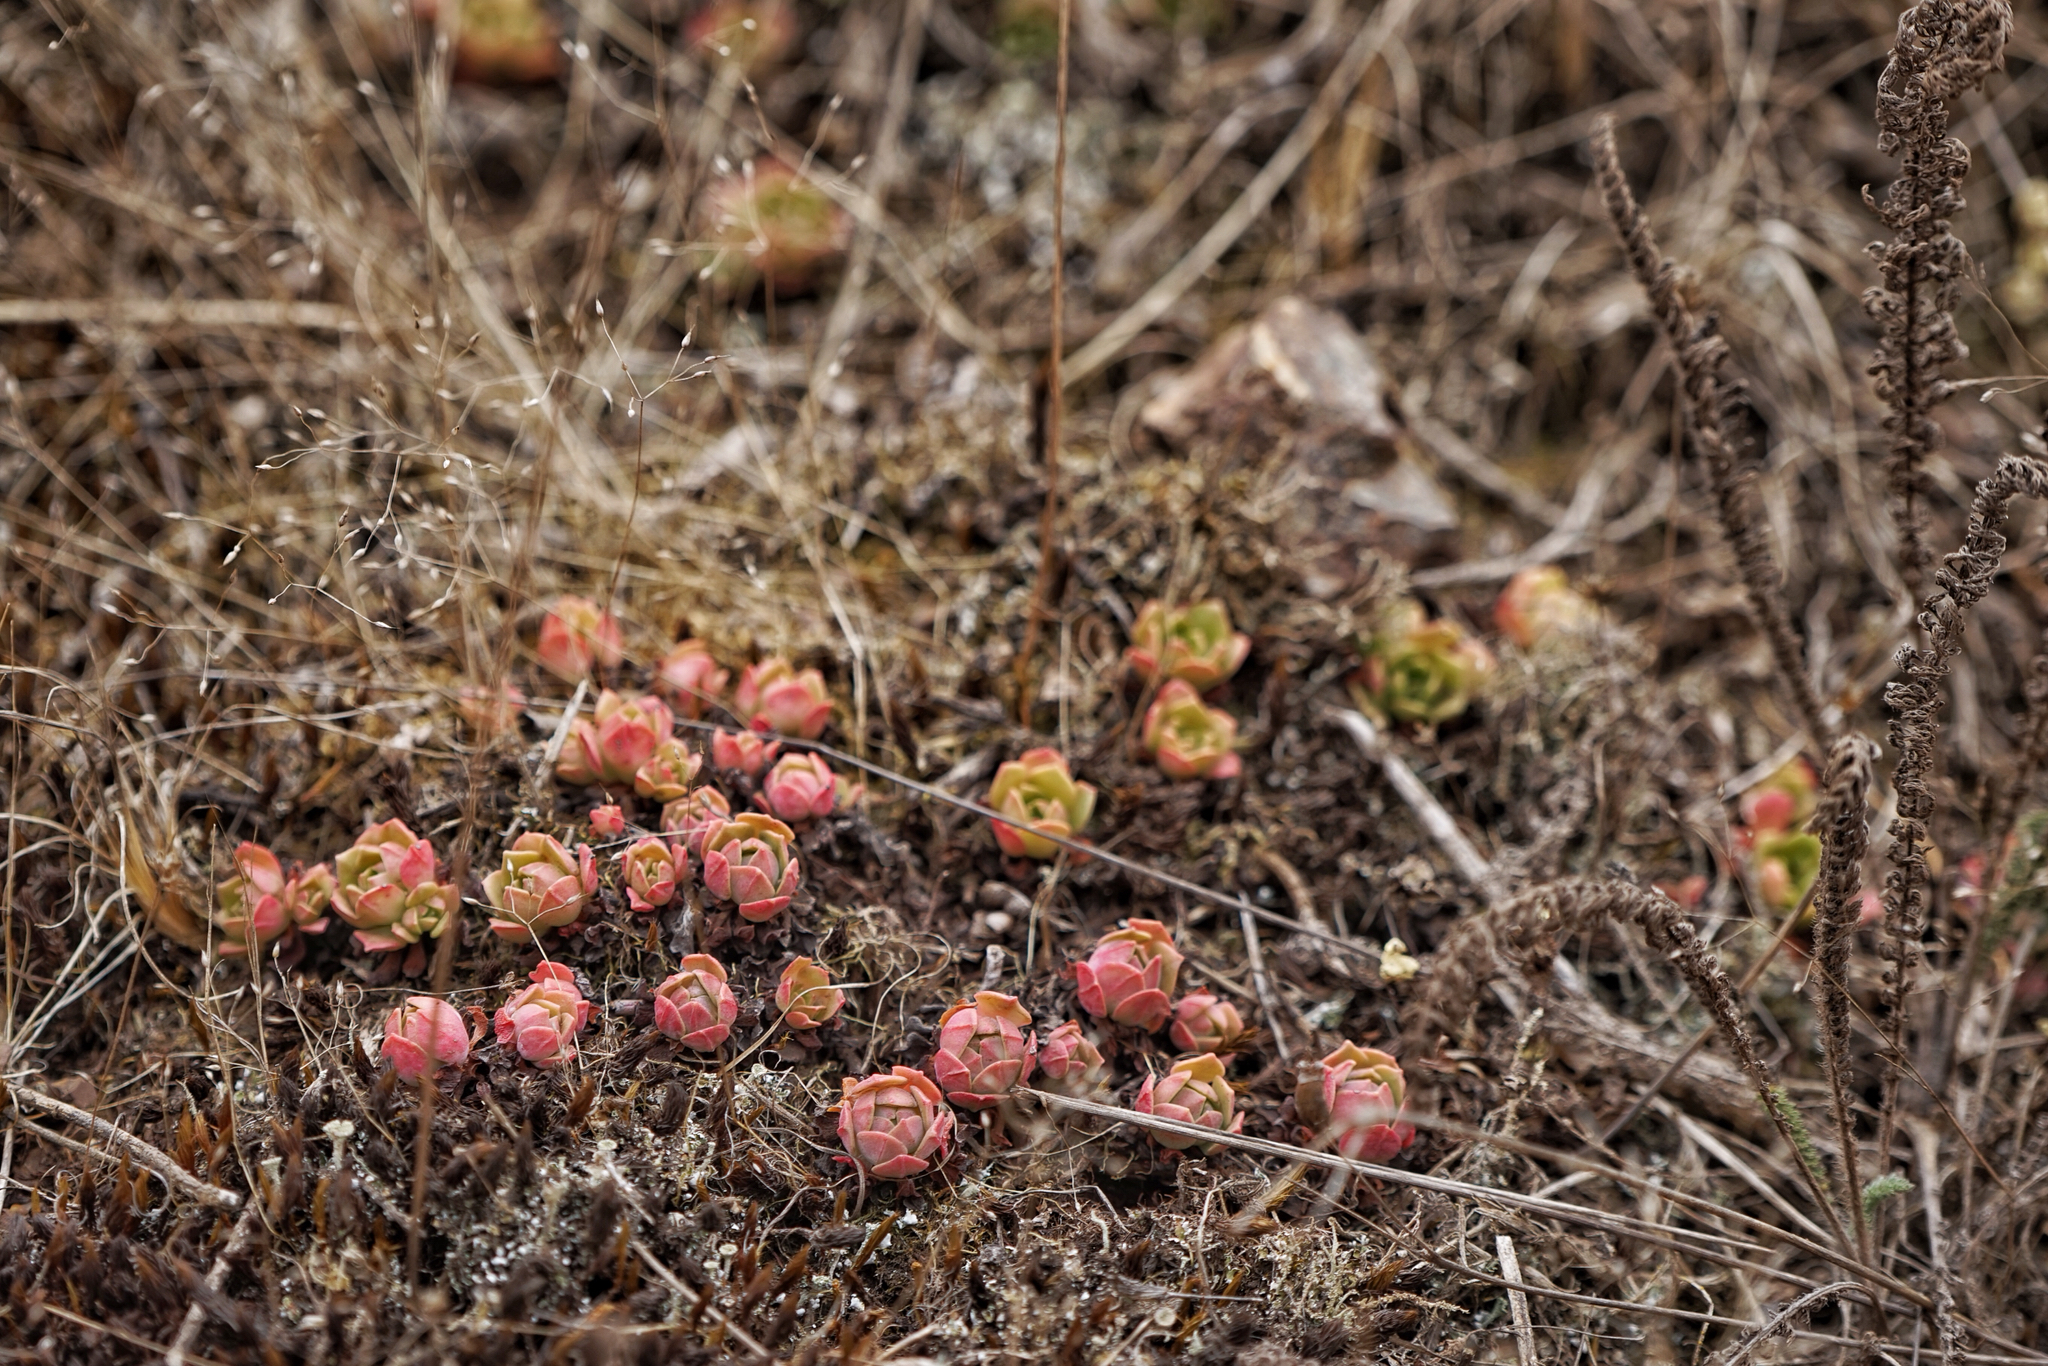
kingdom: Plantae
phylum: Tracheophyta
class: Magnoliopsida
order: Saxifragales
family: Crassulaceae
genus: Sedum
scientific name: Sedum spathulifolium
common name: Colorado stonecrop
